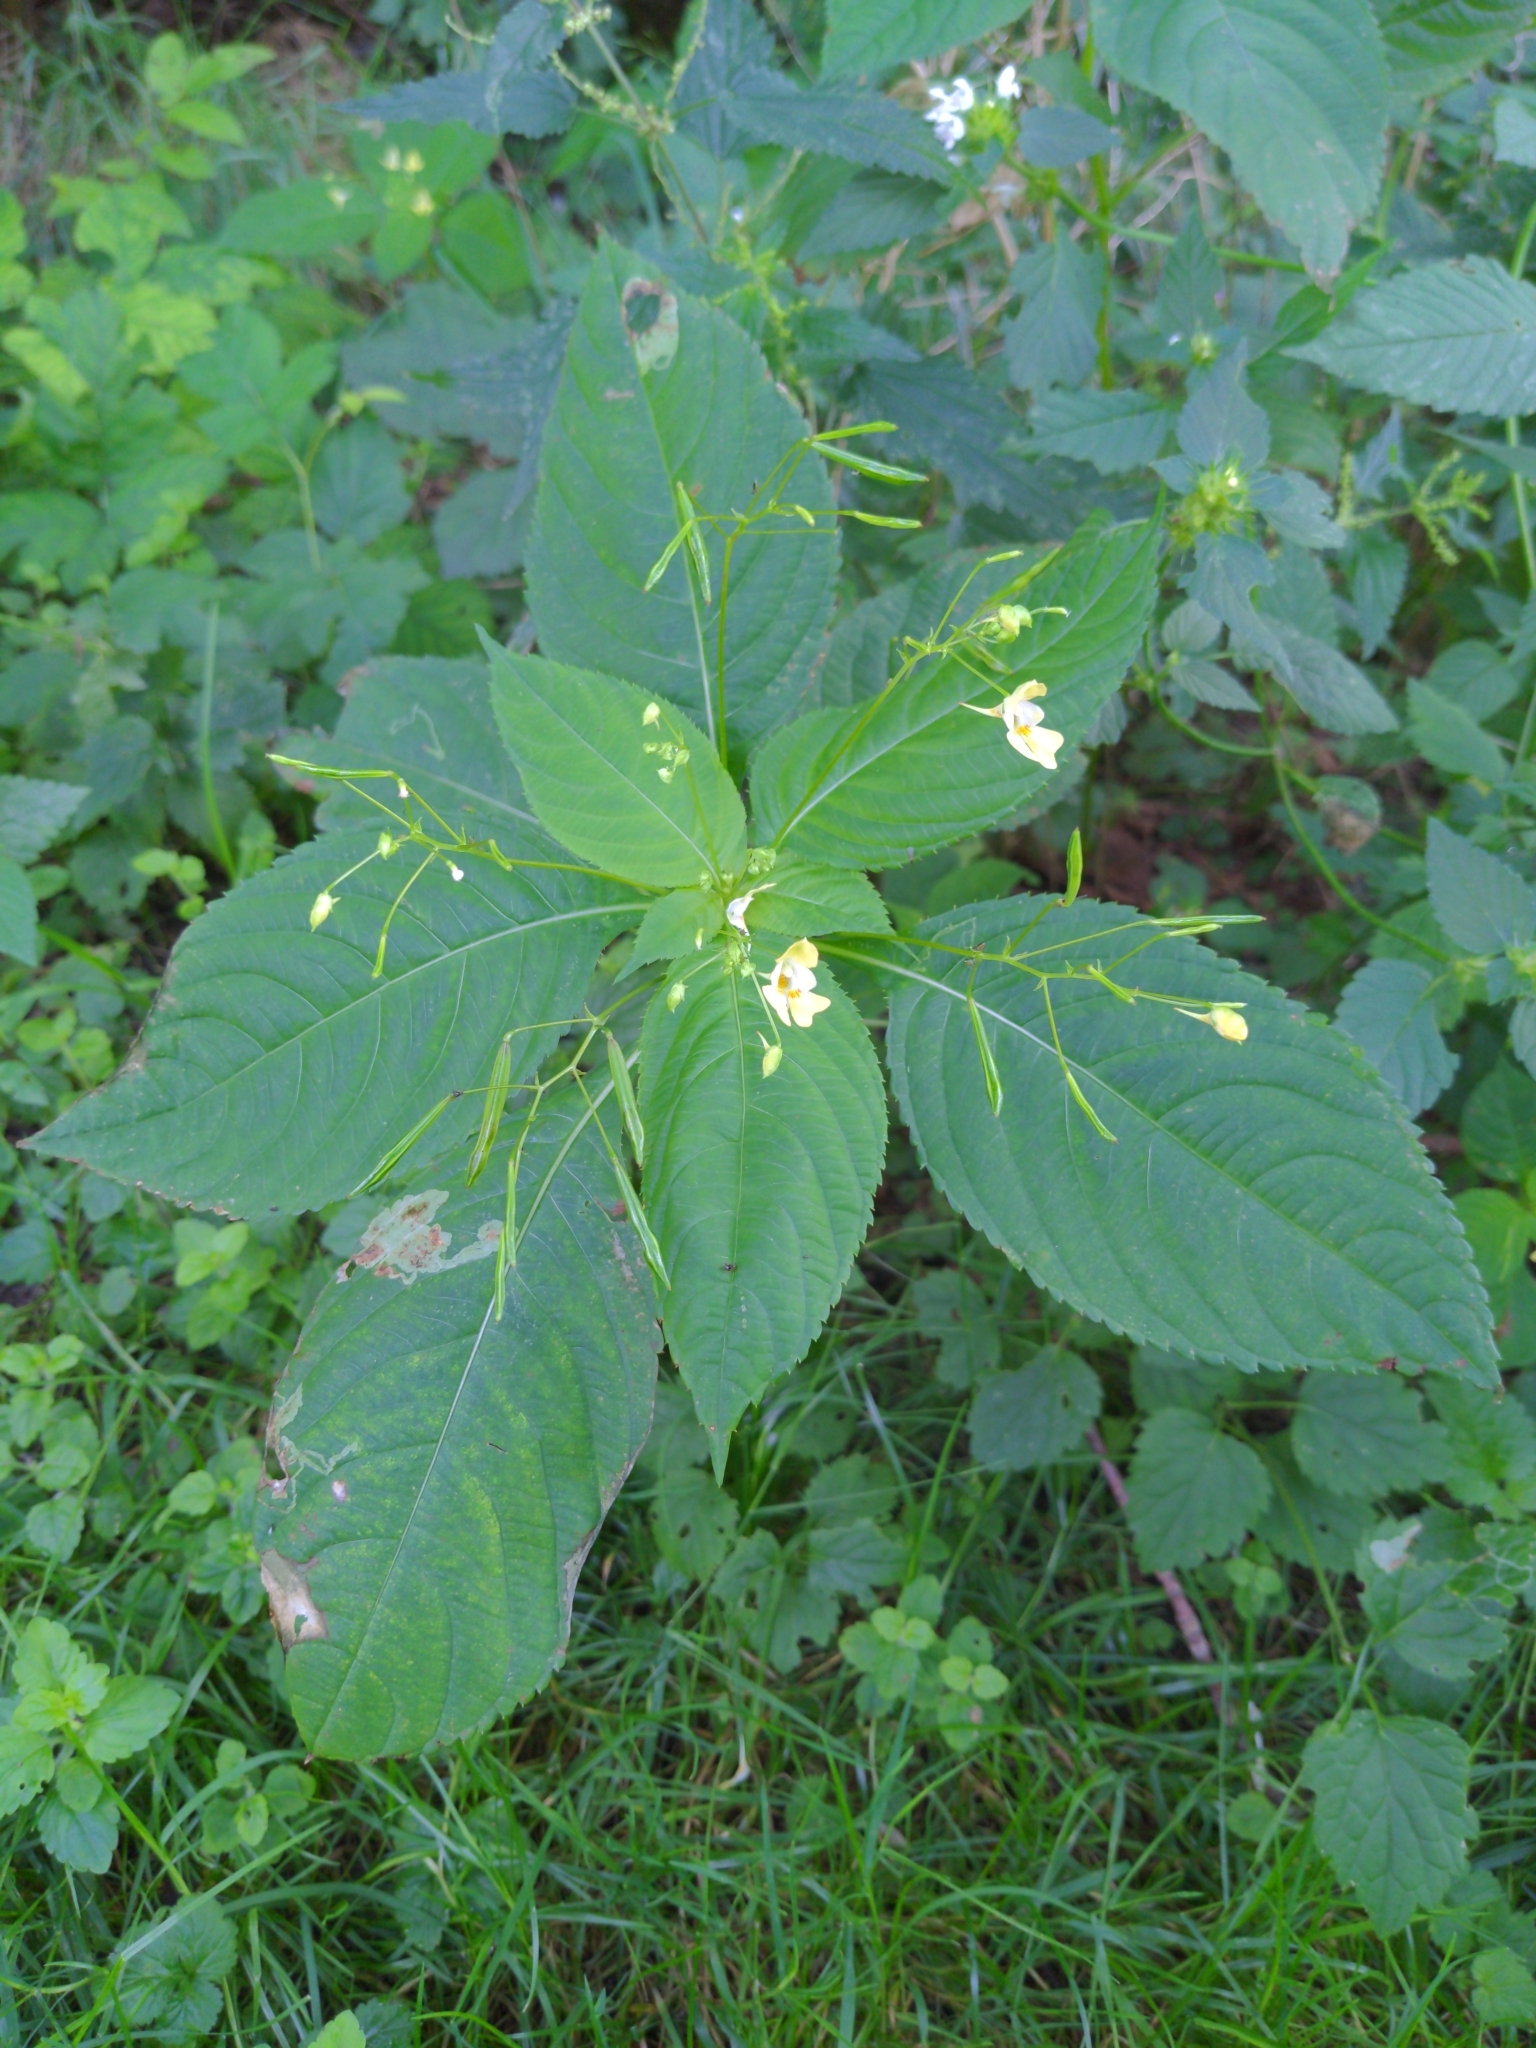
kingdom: Plantae
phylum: Tracheophyta
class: Magnoliopsida
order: Ericales
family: Balsaminaceae
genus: Impatiens
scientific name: Impatiens parviflora
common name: Small balsam
